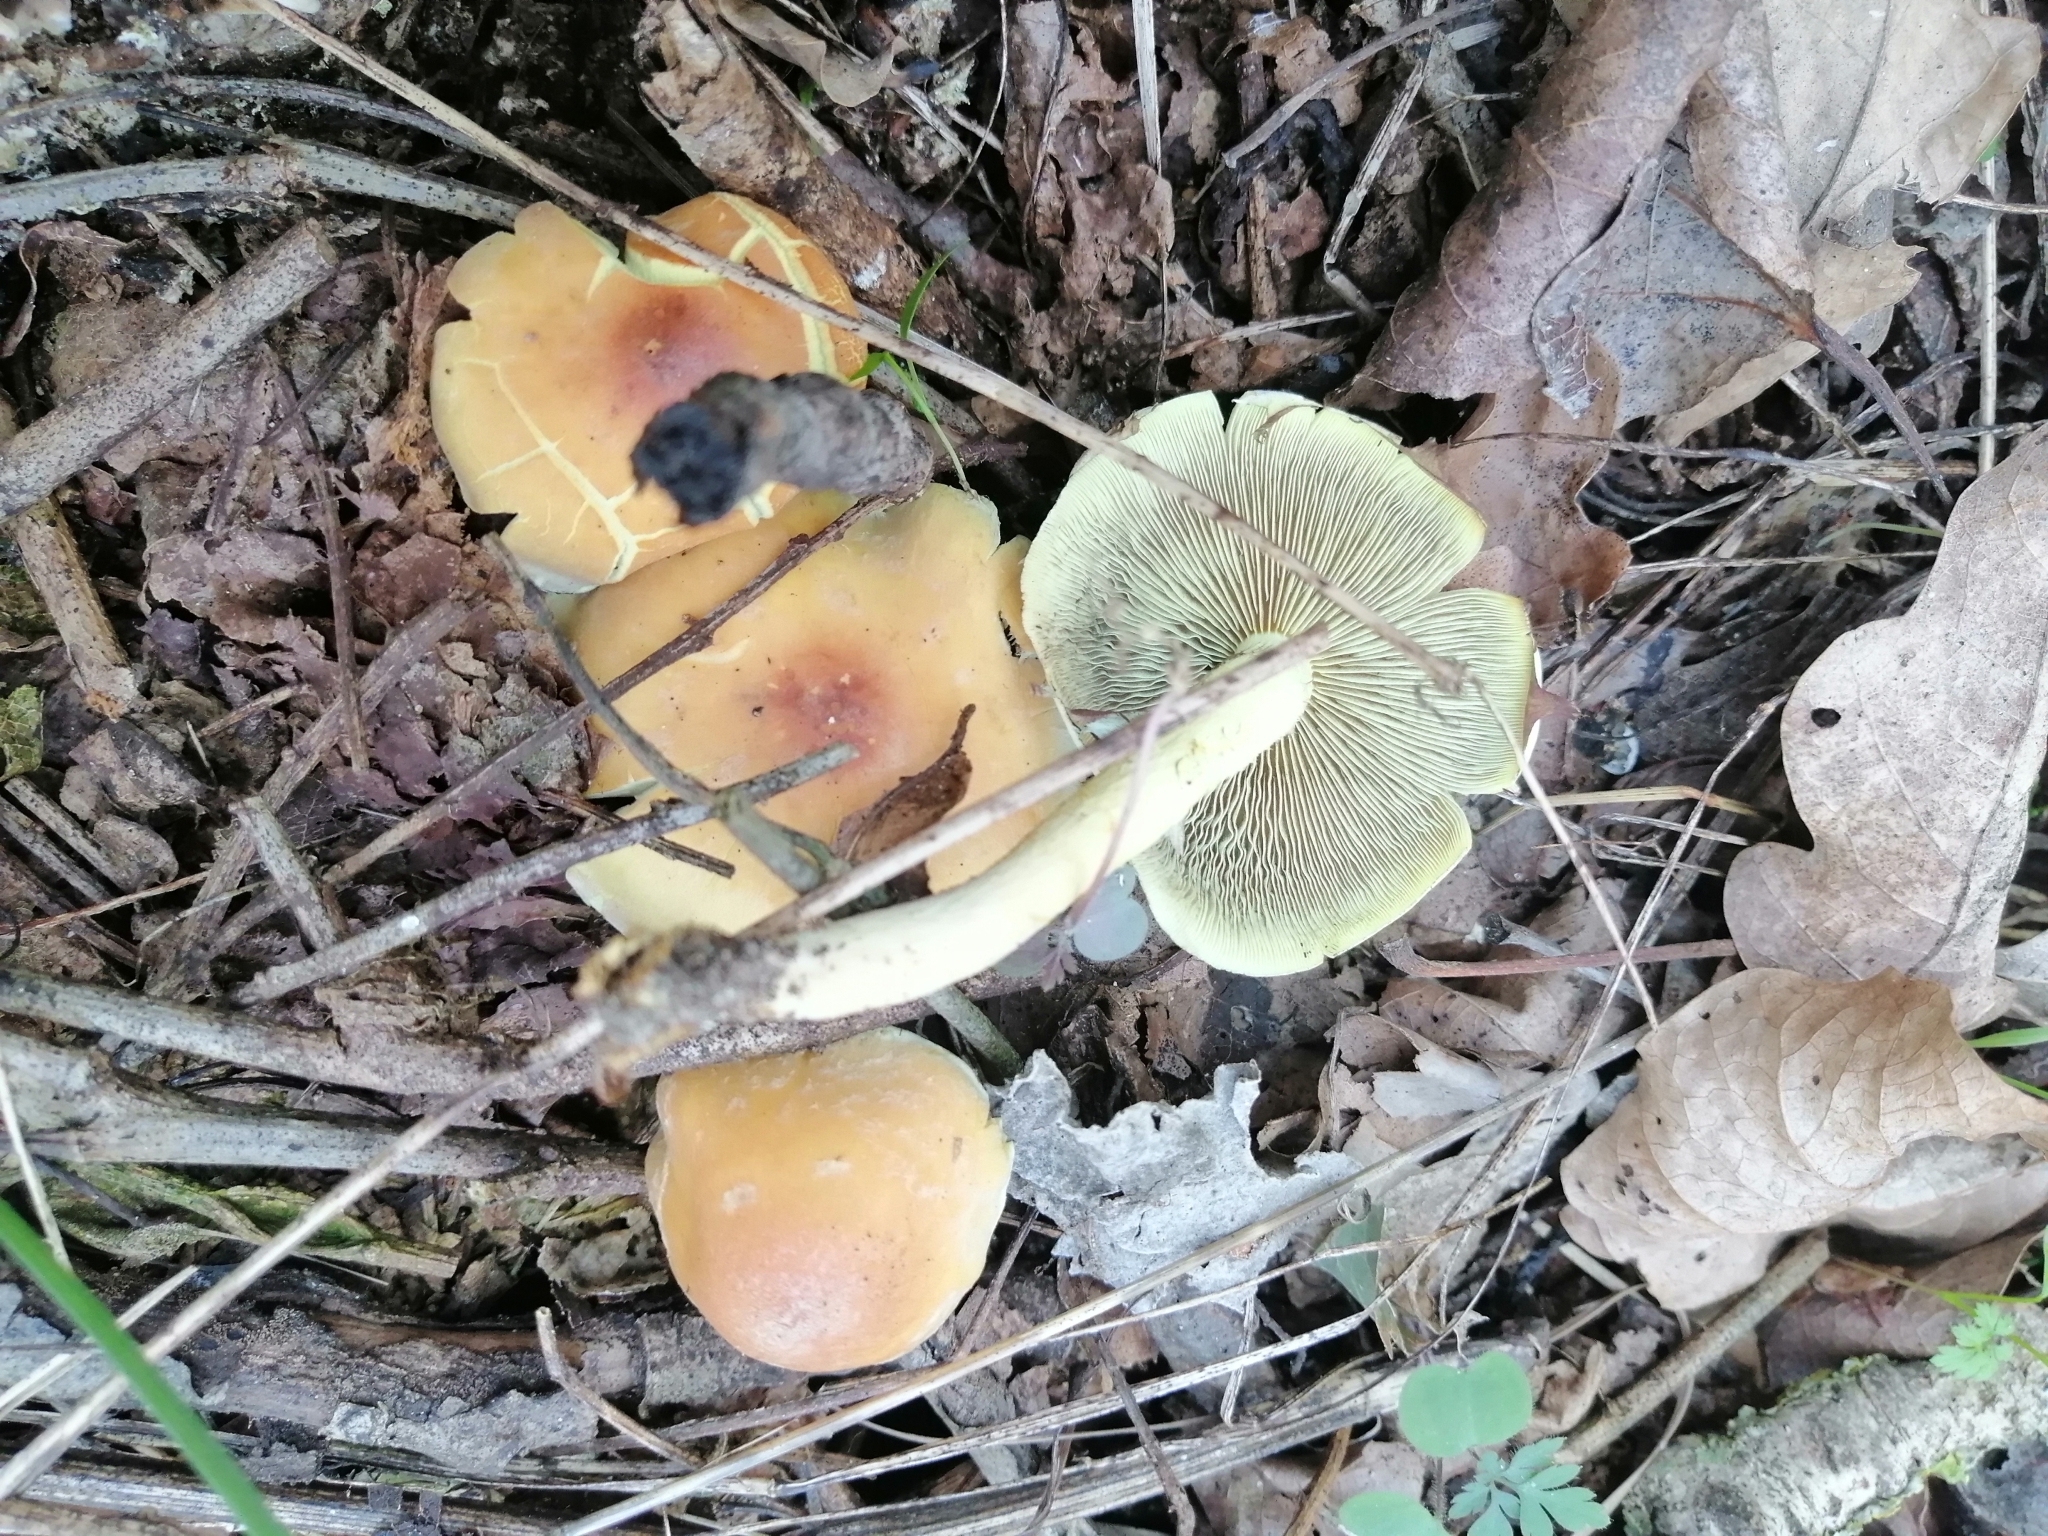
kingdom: Fungi
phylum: Basidiomycota
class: Agaricomycetes
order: Agaricales
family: Strophariaceae
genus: Hypholoma
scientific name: Hypholoma fasciculare
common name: Sulphur tuft
